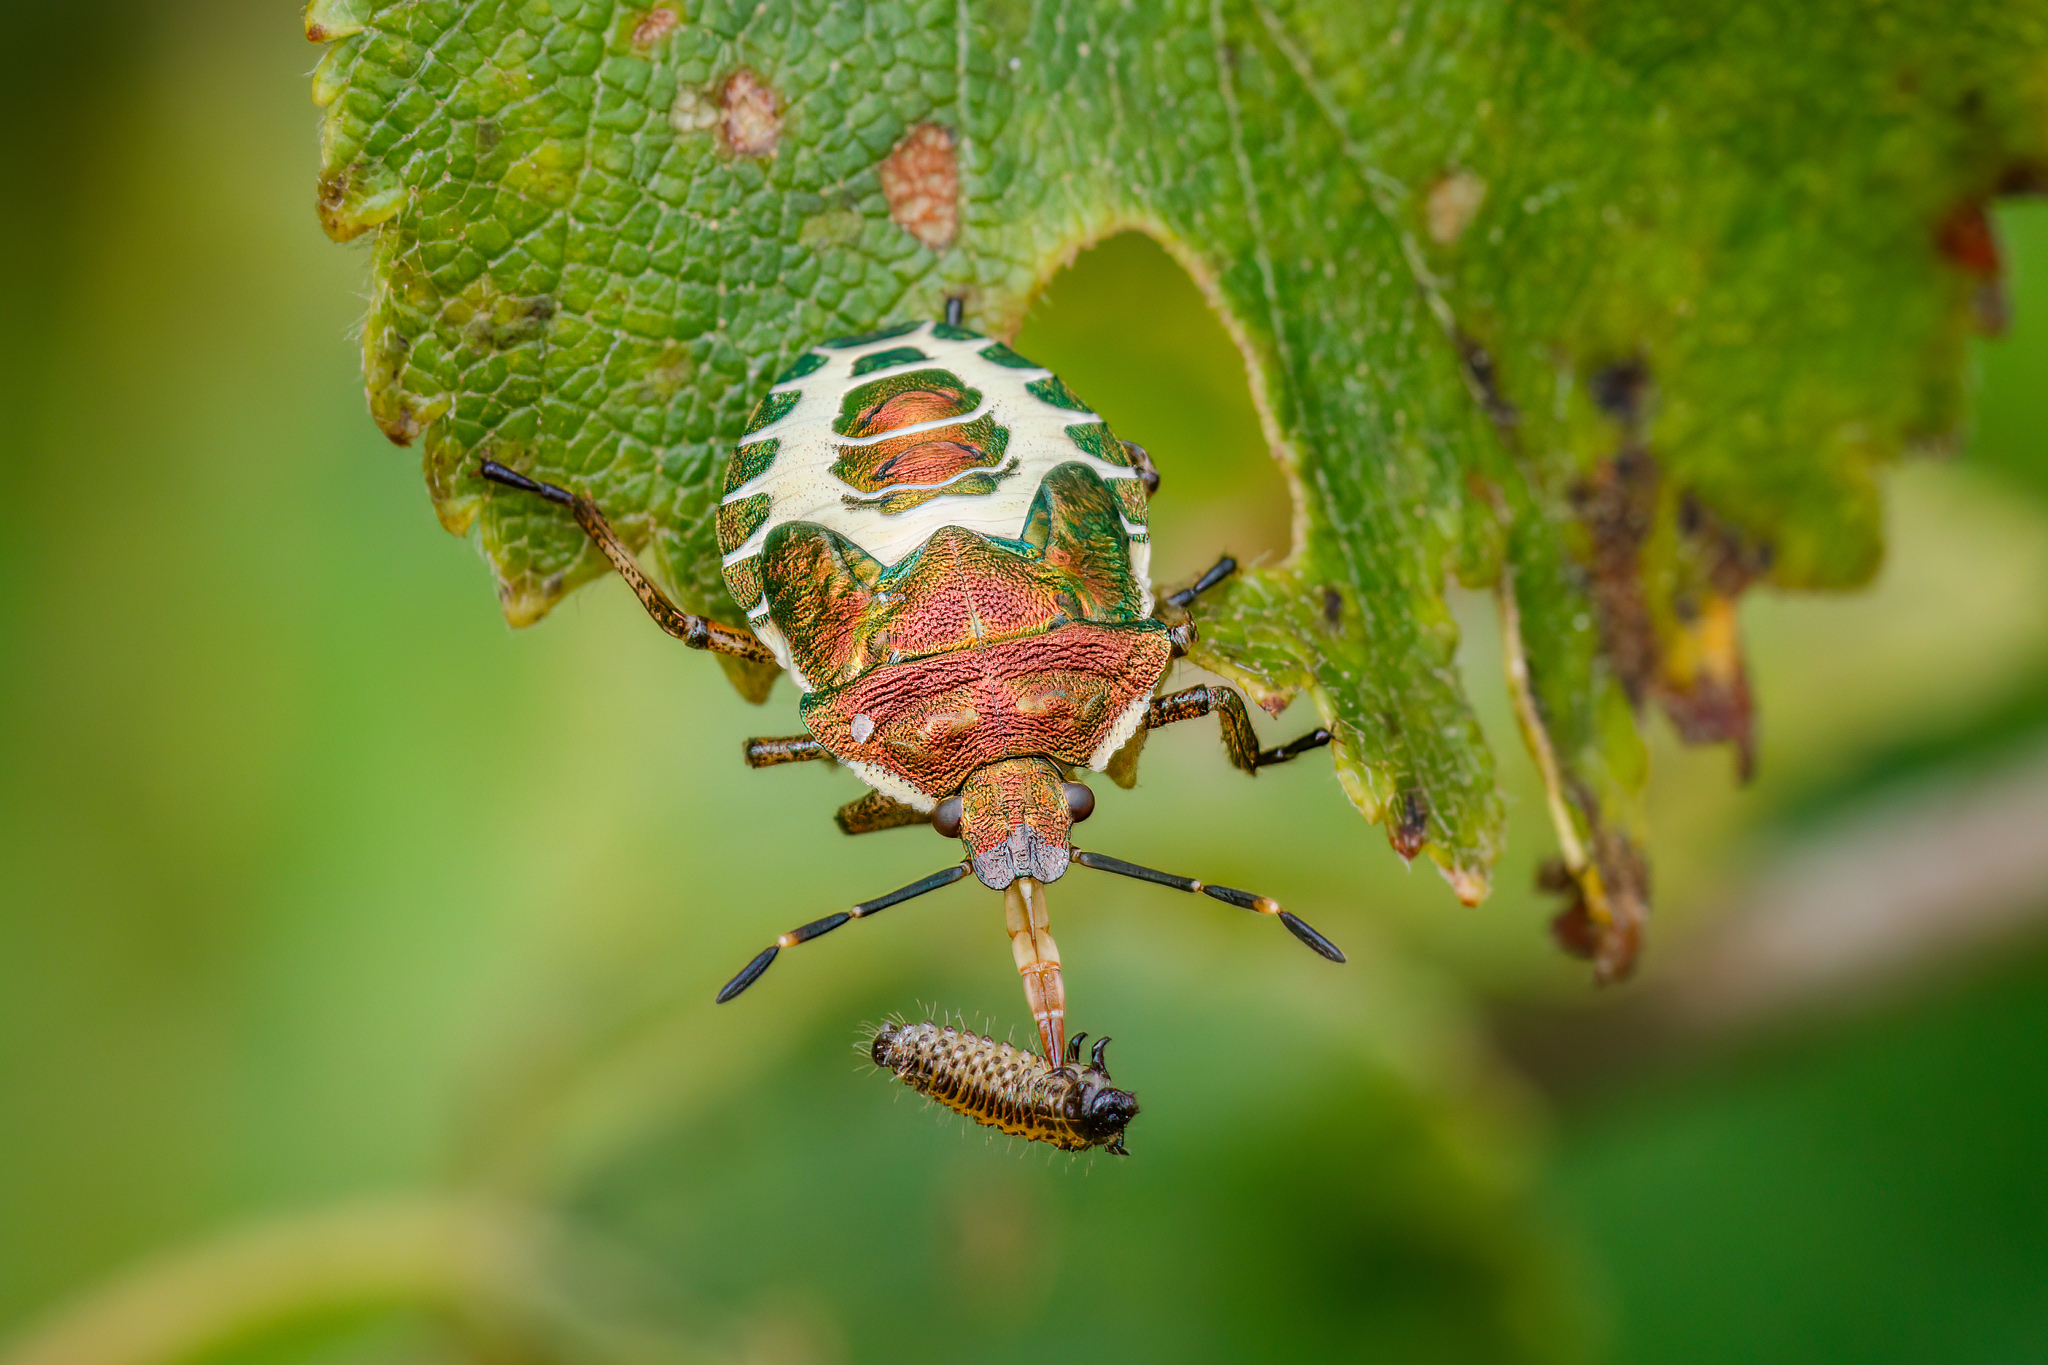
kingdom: Animalia
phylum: Arthropoda
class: Insecta
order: Hemiptera
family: Pentatomidae
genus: Troilus
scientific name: Troilus luridus
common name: Bronze shieldbug
